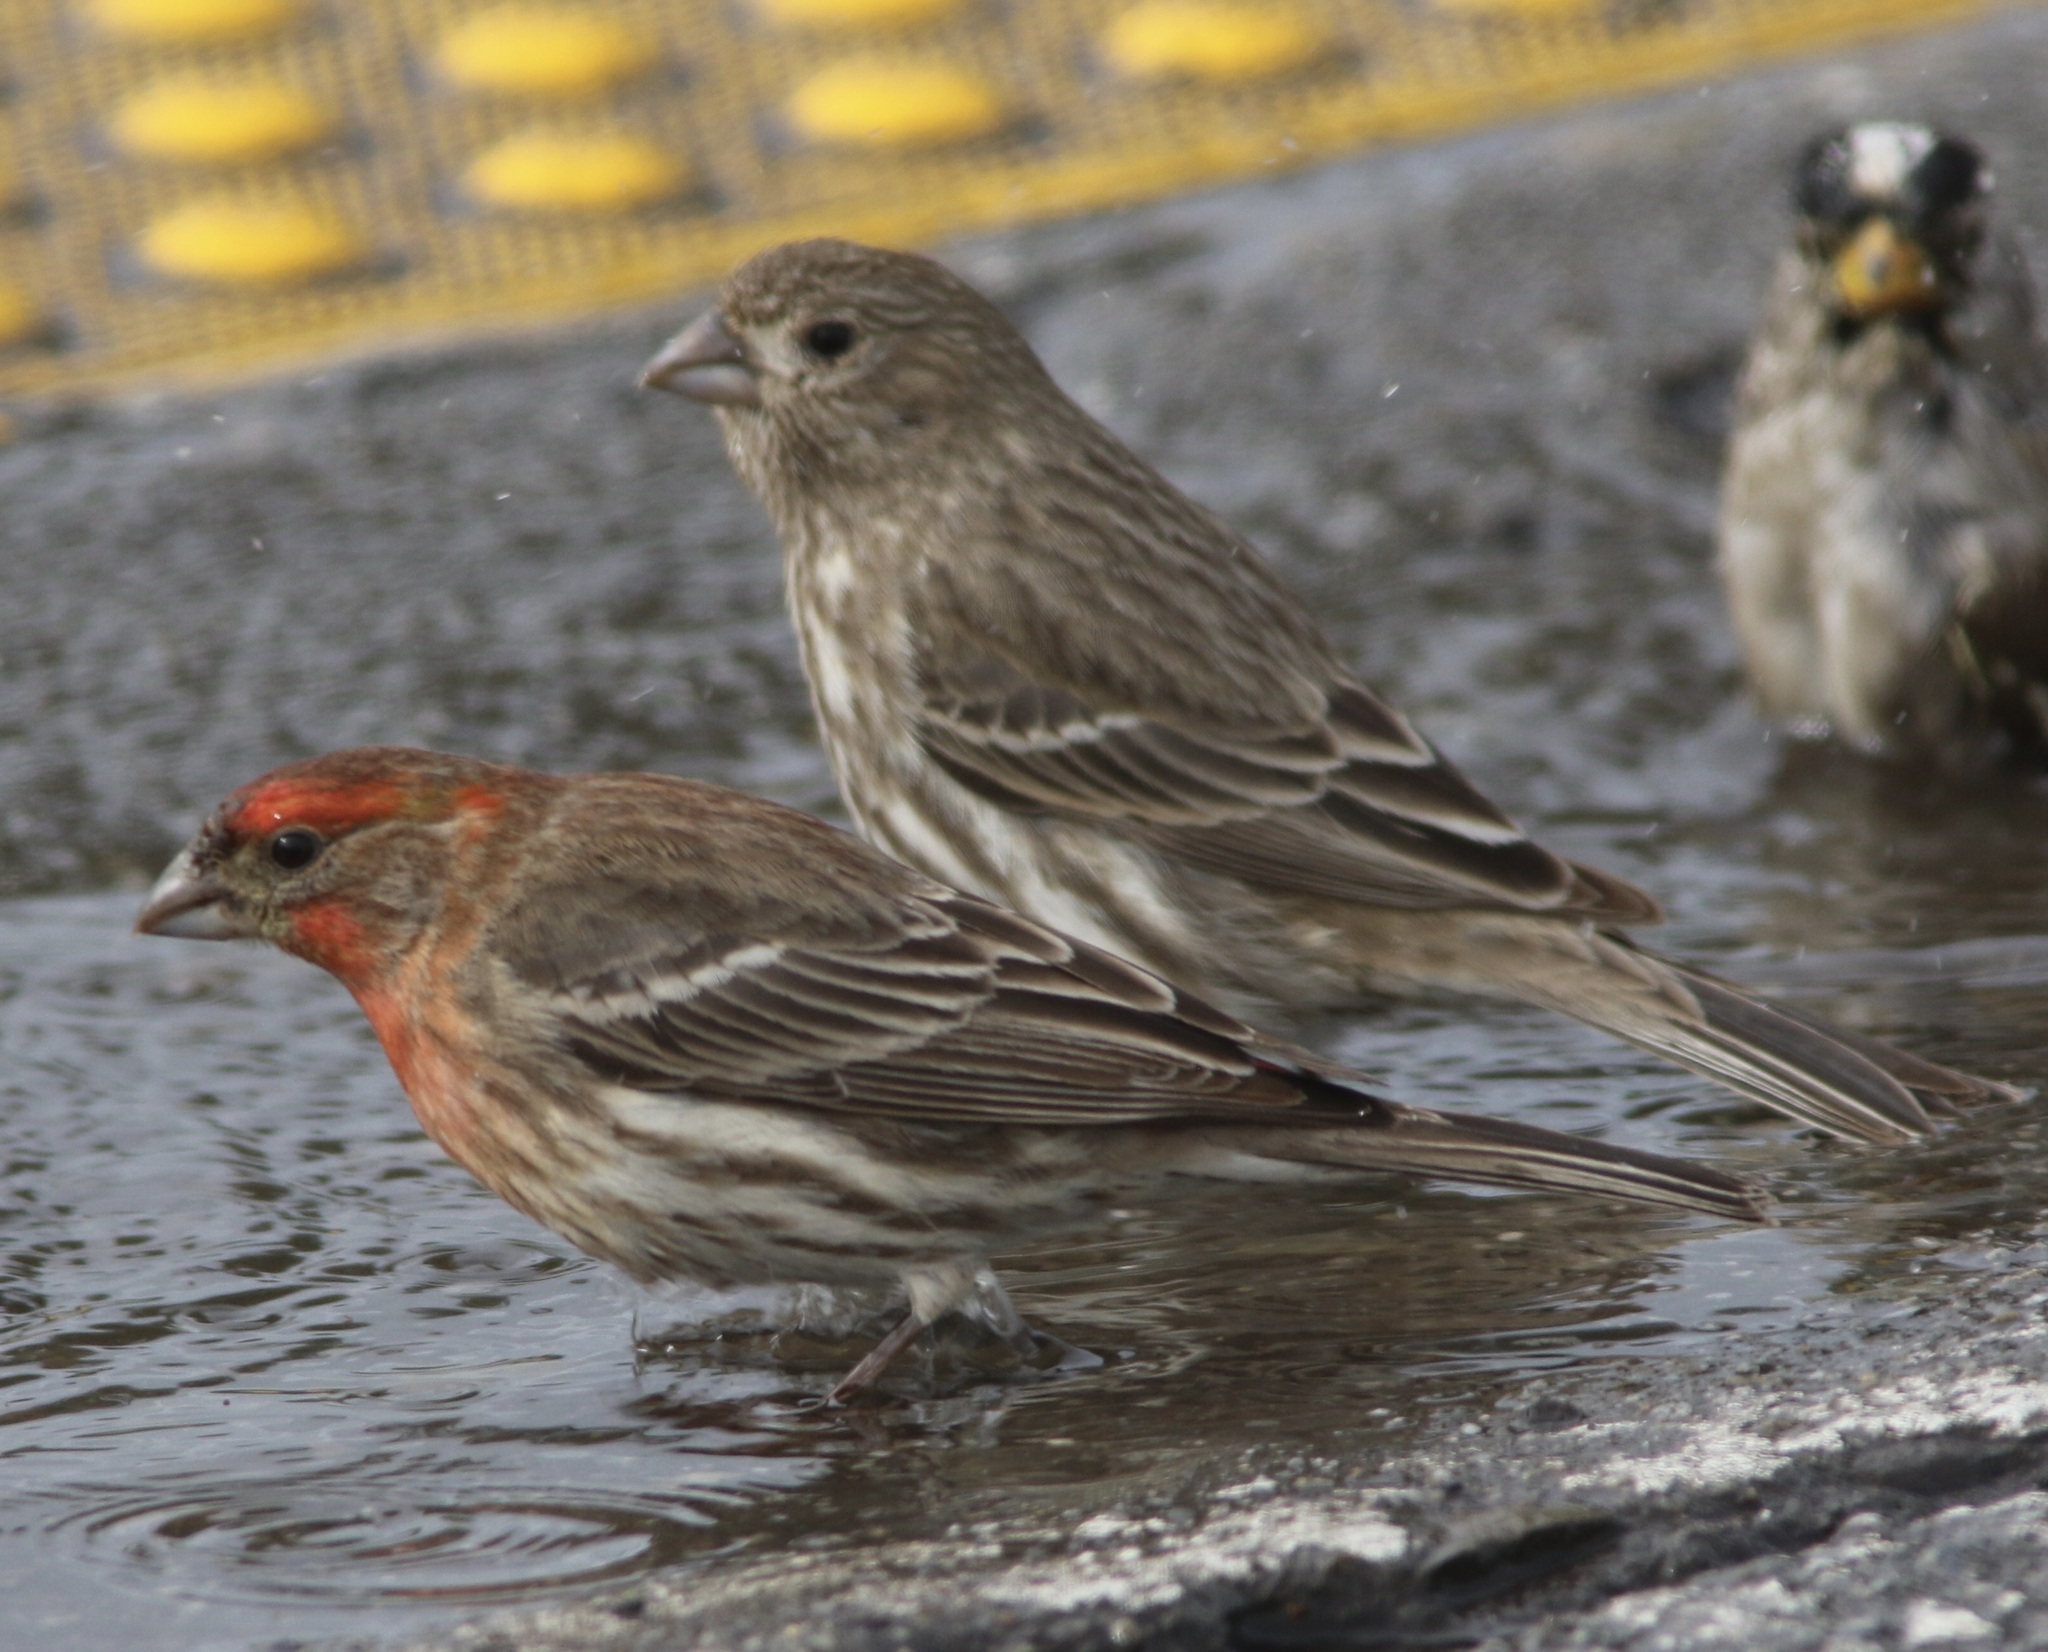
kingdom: Animalia
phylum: Chordata
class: Aves
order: Passeriformes
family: Fringillidae
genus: Haemorhous
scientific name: Haemorhous mexicanus
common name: House finch
